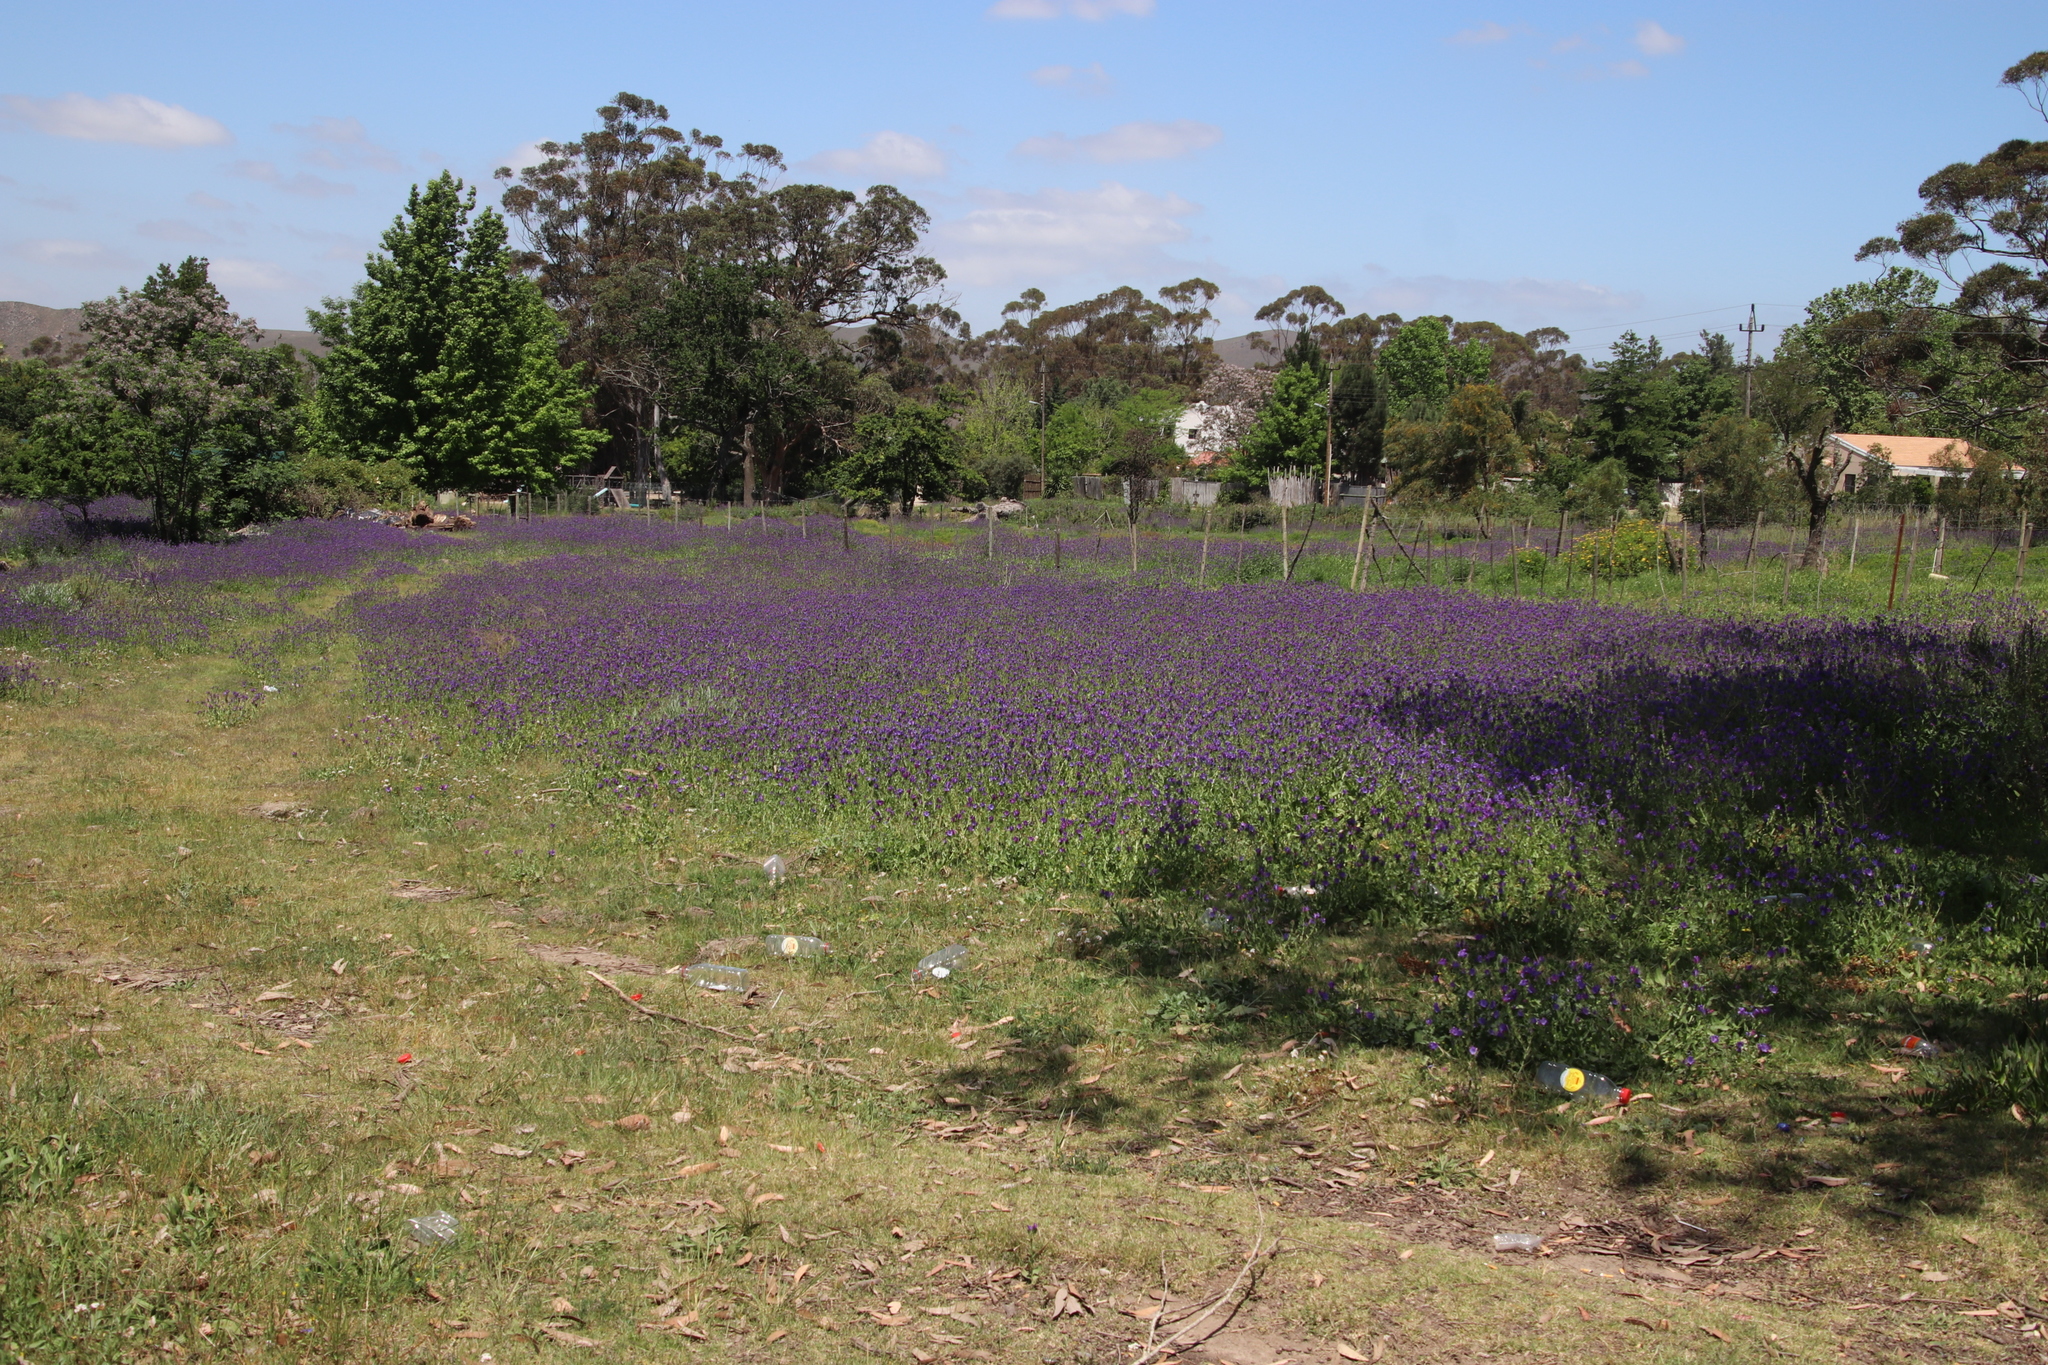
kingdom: Plantae
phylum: Tracheophyta
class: Magnoliopsida
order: Boraginales
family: Boraginaceae
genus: Echium
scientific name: Echium plantagineum
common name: Purple viper's-bugloss
